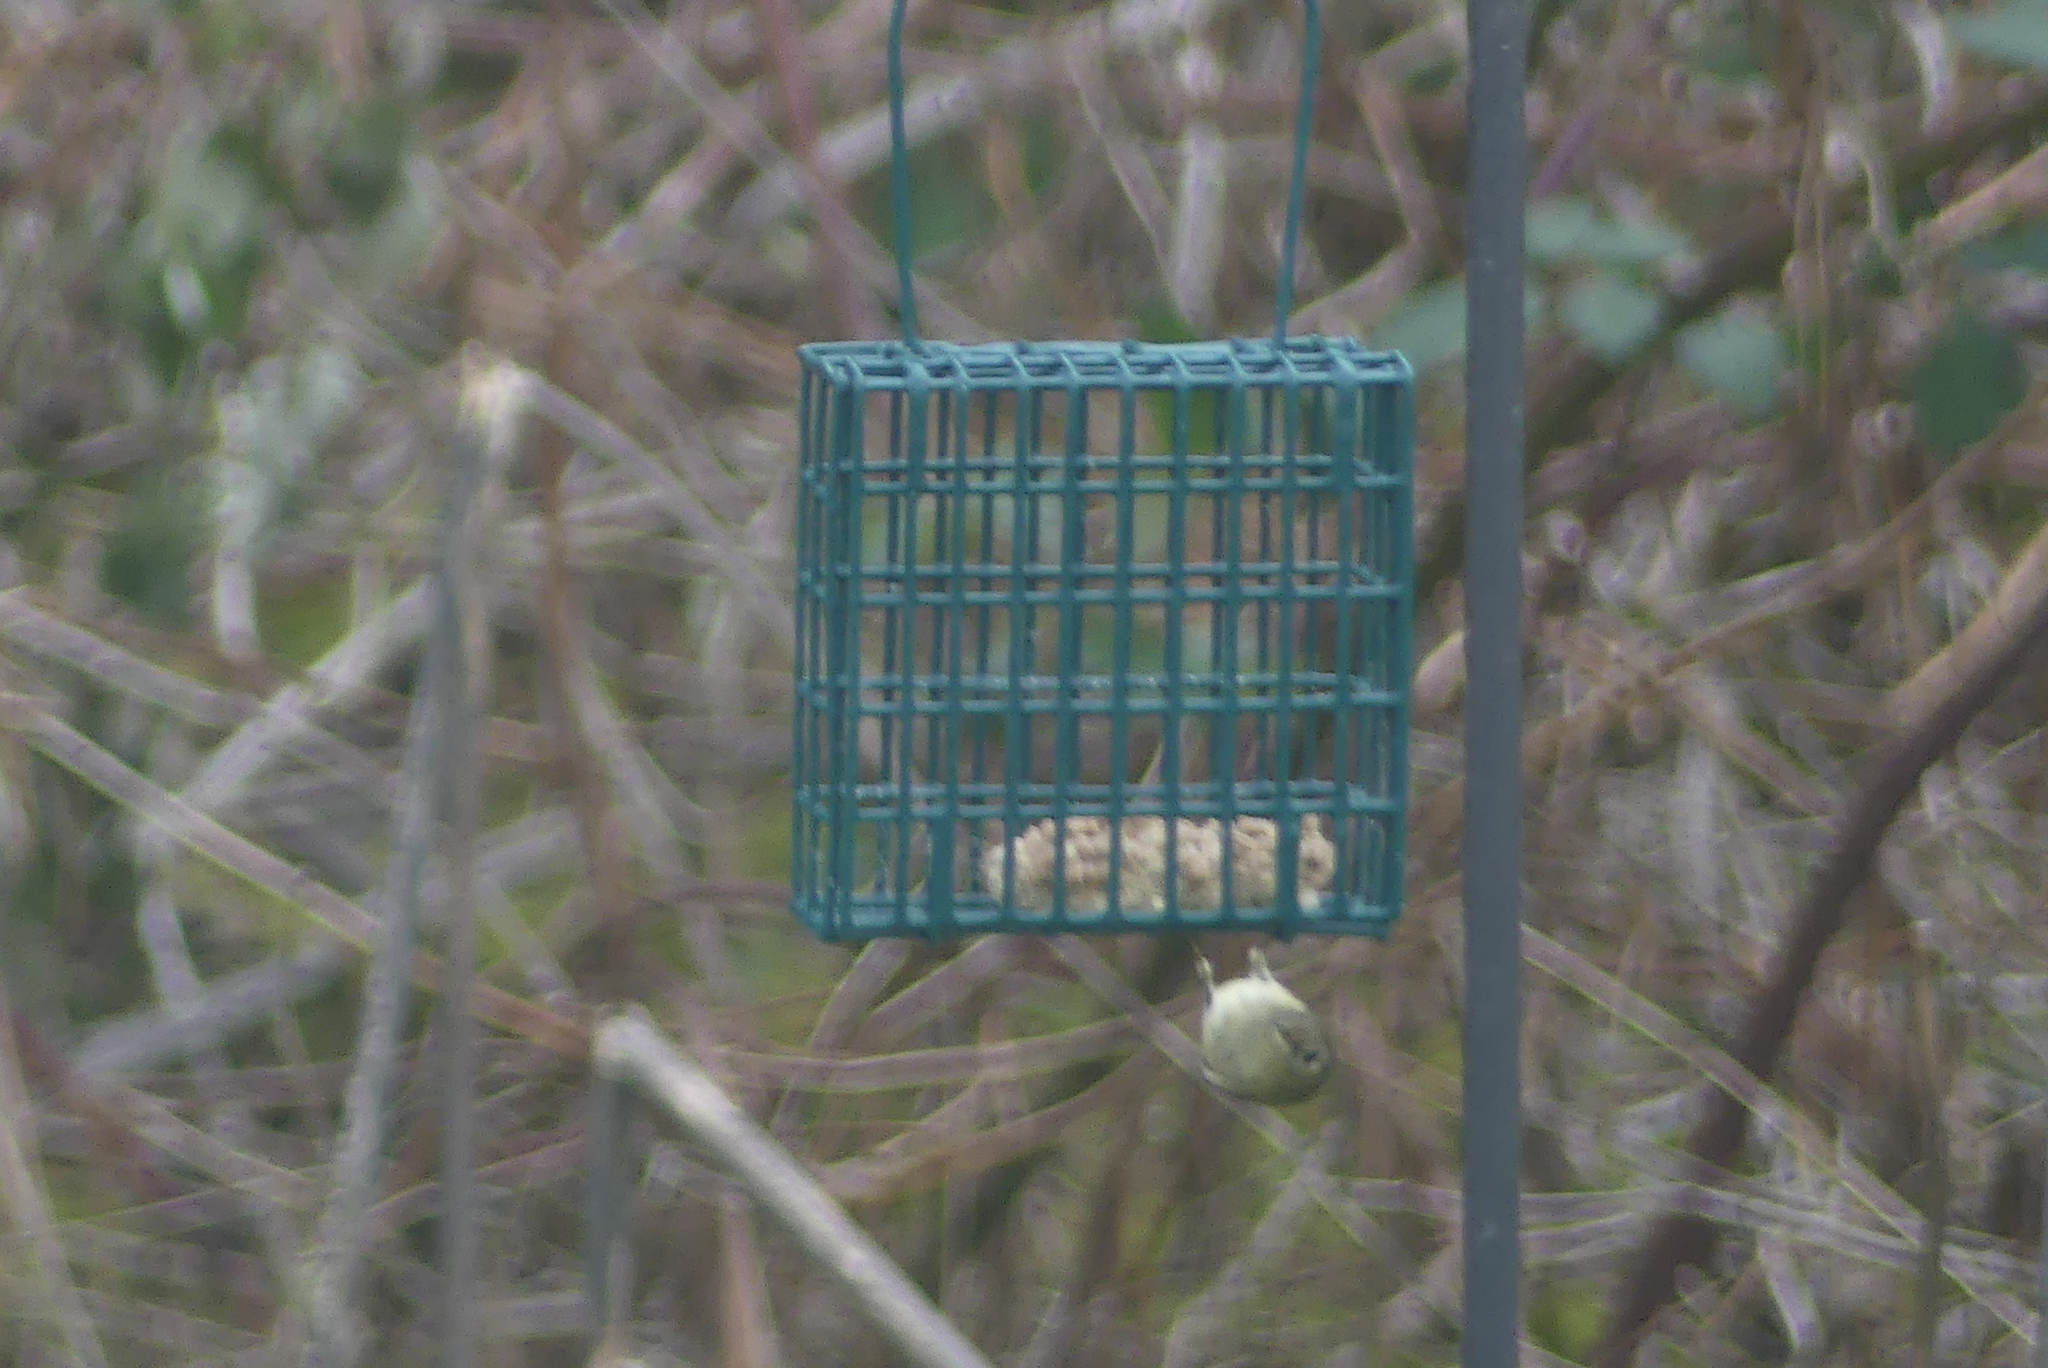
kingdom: Animalia
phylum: Chordata
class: Aves
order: Passeriformes
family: Regulidae
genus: Regulus
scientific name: Regulus calendula
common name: Ruby-crowned kinglet
